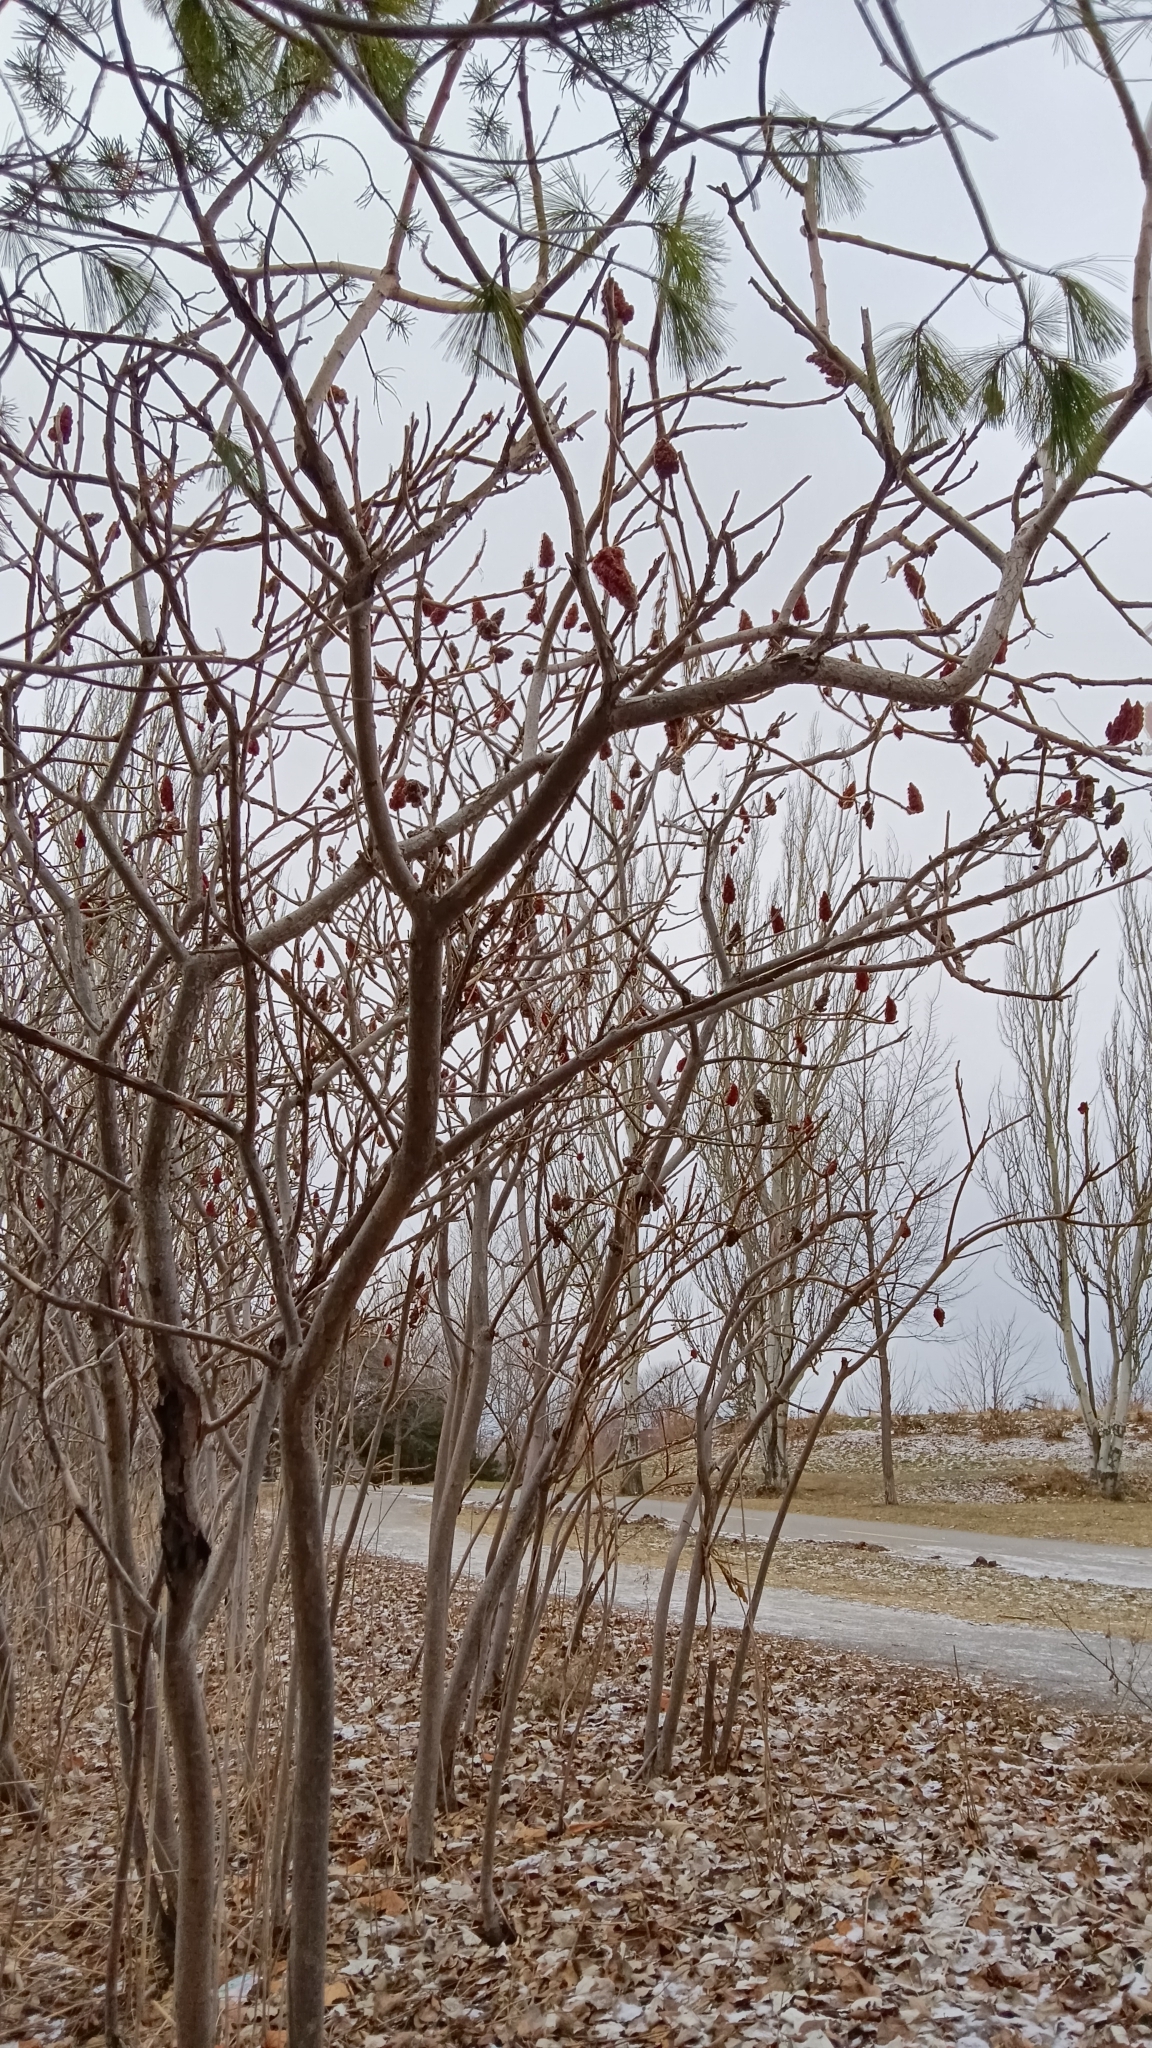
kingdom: Plantae
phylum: Tracheophyta
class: Magnoliopsida
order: Sapindales
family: Anacardiaceae
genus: Rhus
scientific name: Rhus typhina
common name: Staghorn sumac
